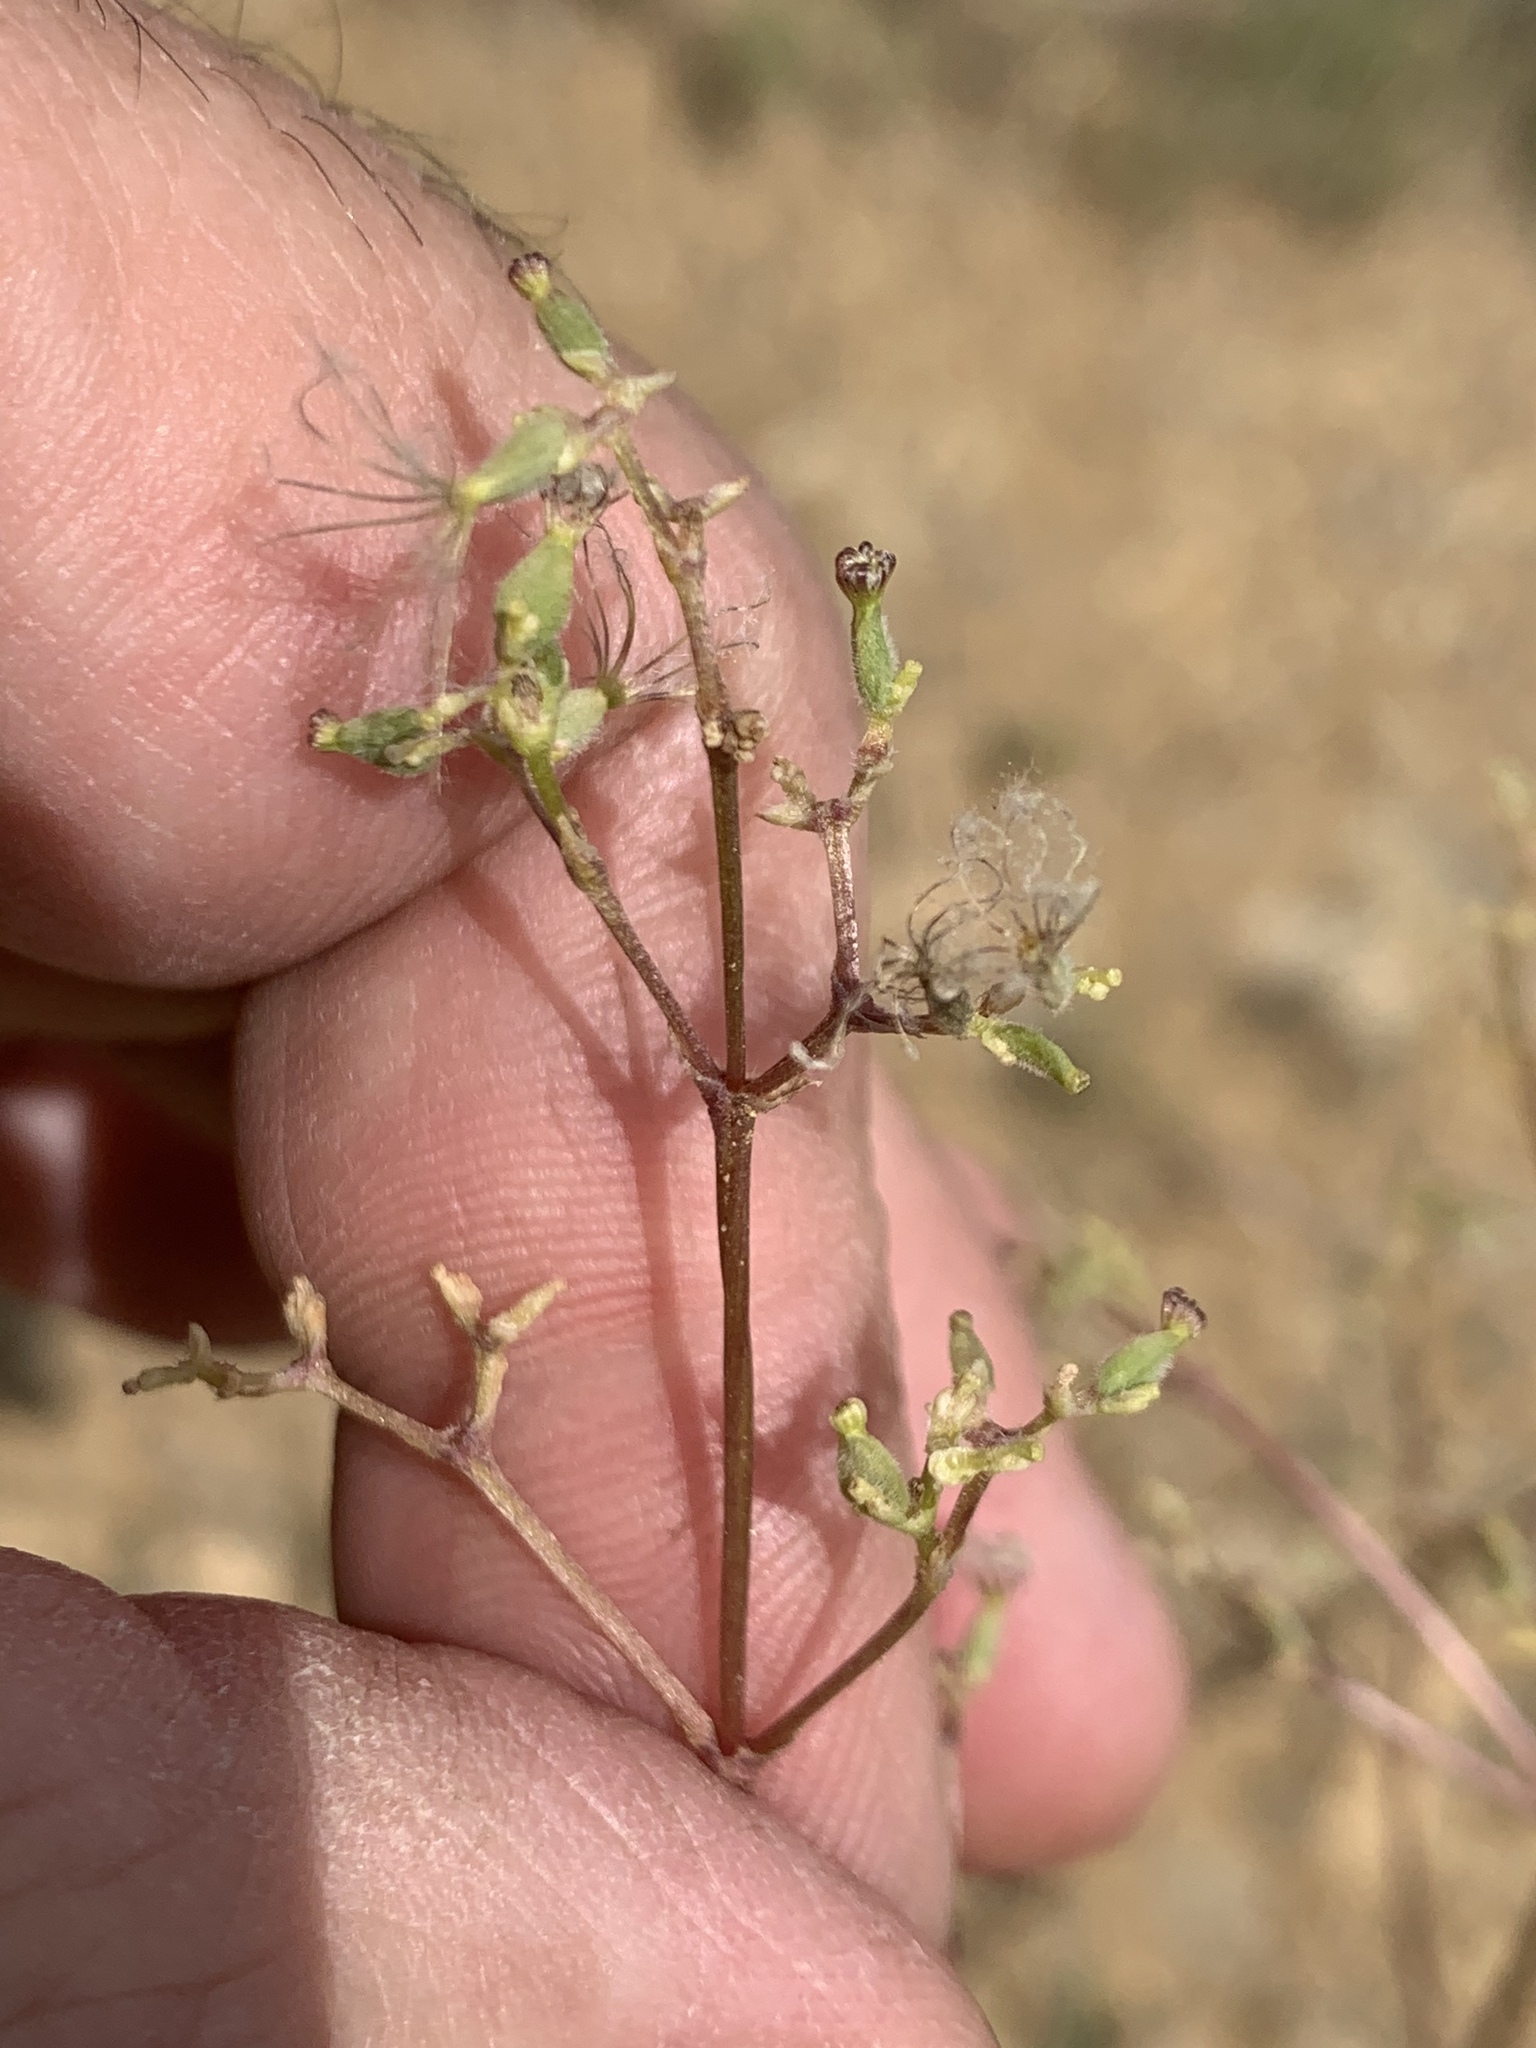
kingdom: Plantae
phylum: Tracheophyta
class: Magnoliopsida
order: Dipsacales
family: Caprifoliaceae
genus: Valeriana
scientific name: Valeriana edulis
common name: Taproot valerian
